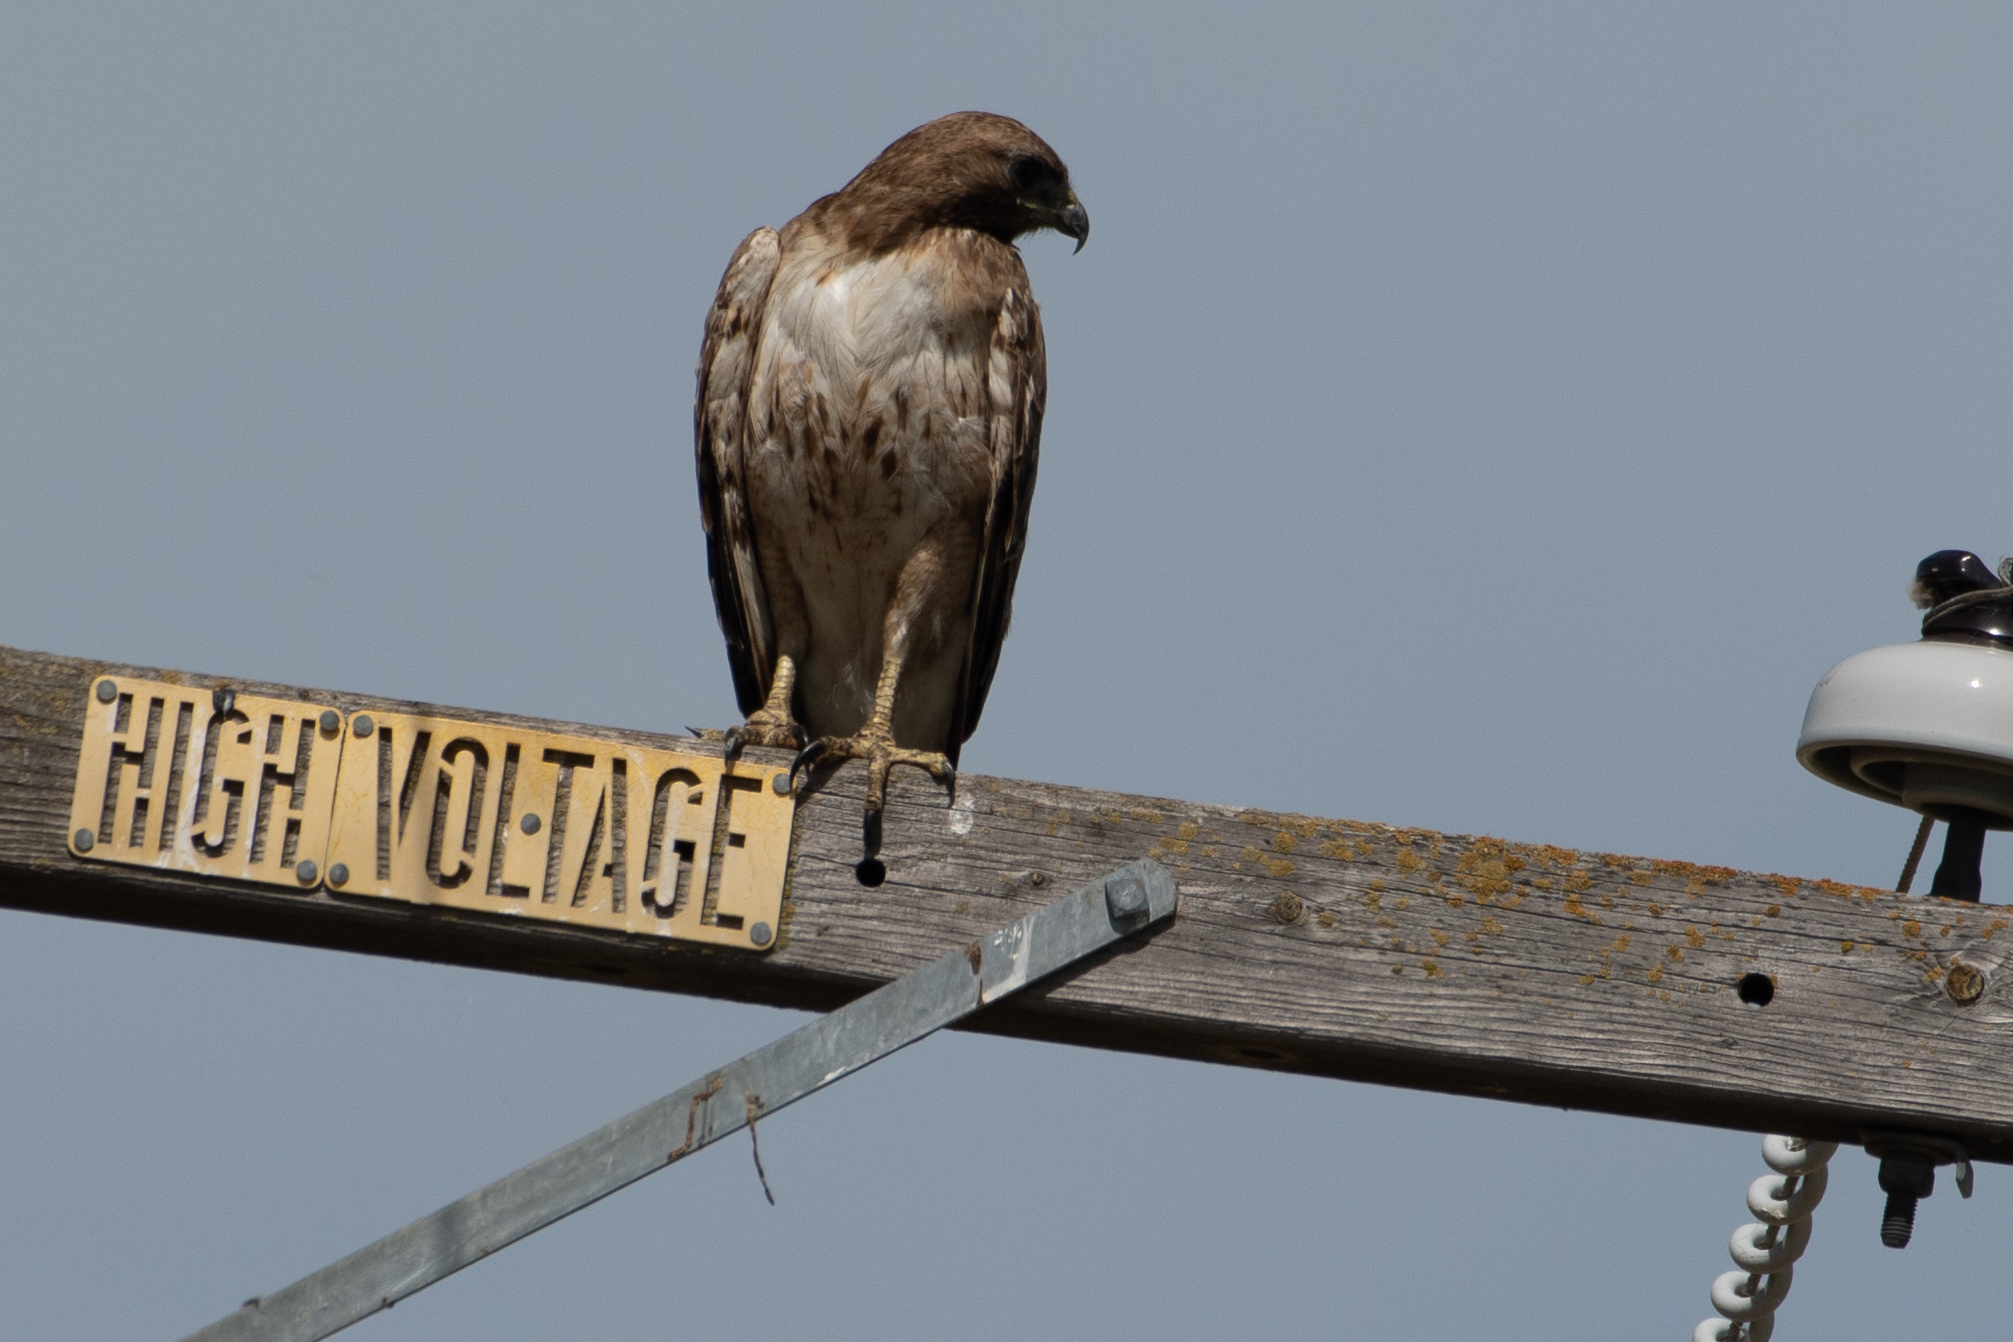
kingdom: Animalia
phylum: Chordata
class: Aves
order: Accipitriformes
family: Accipitridae
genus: Buteo
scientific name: Buteo jamaicensis
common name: Red-tailed hawk
